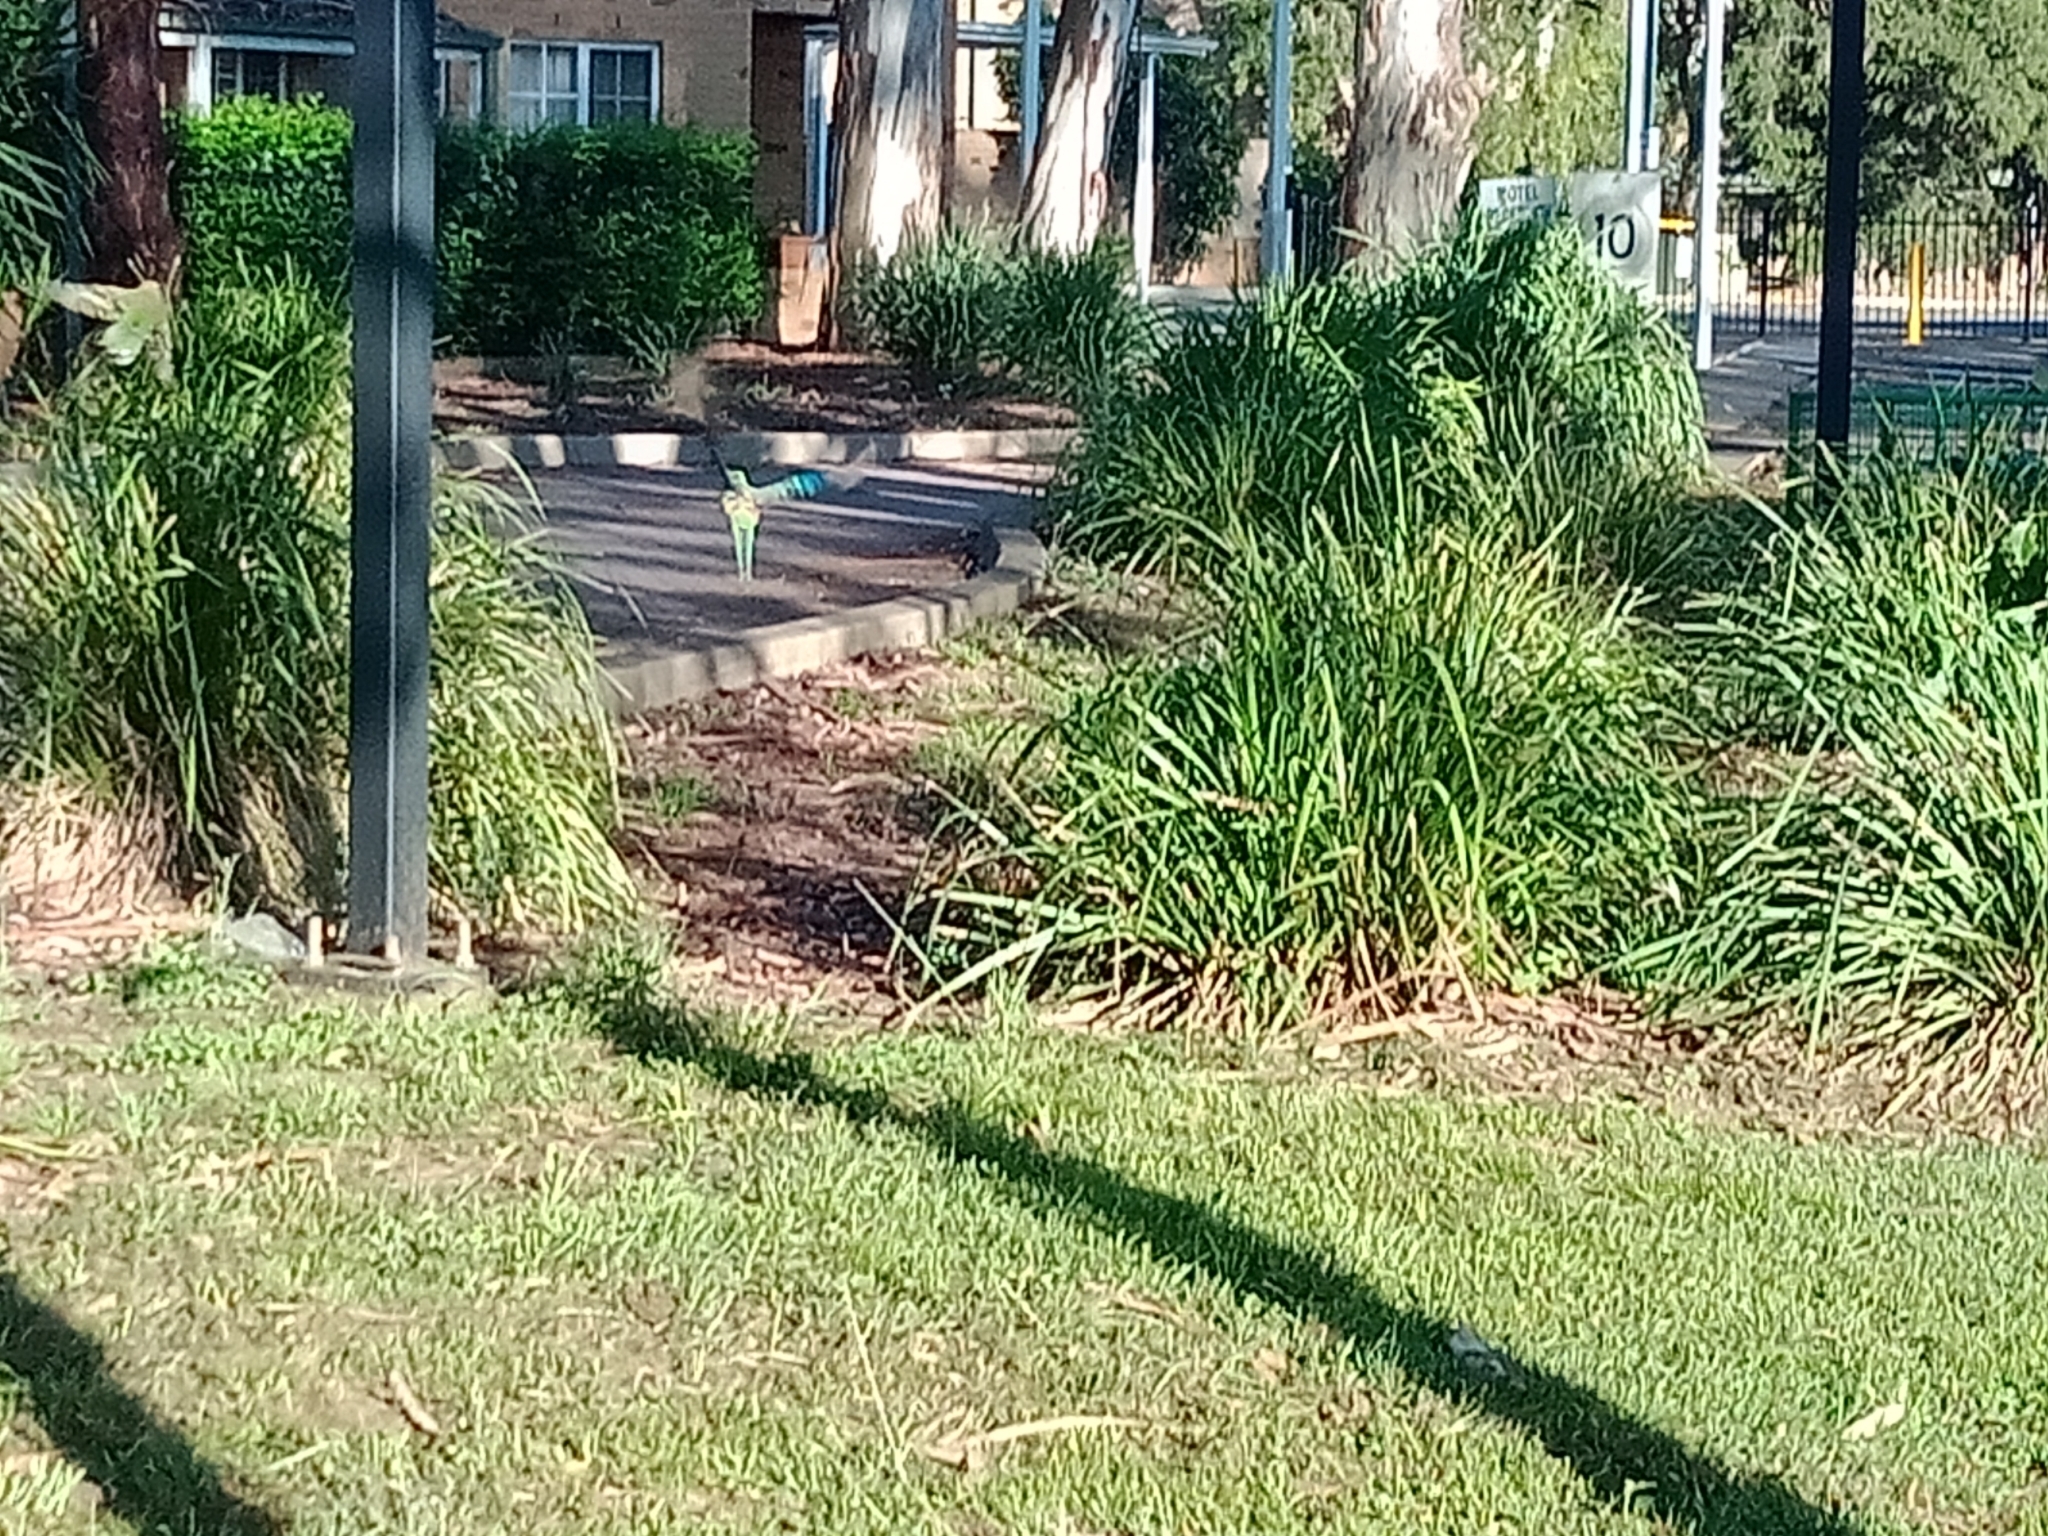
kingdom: Animalia
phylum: Chordata
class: Aves
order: Psittaciformes
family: Psittacidae
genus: Psephotus
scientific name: Psephotus haematonotus
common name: Red-rumped parrot
